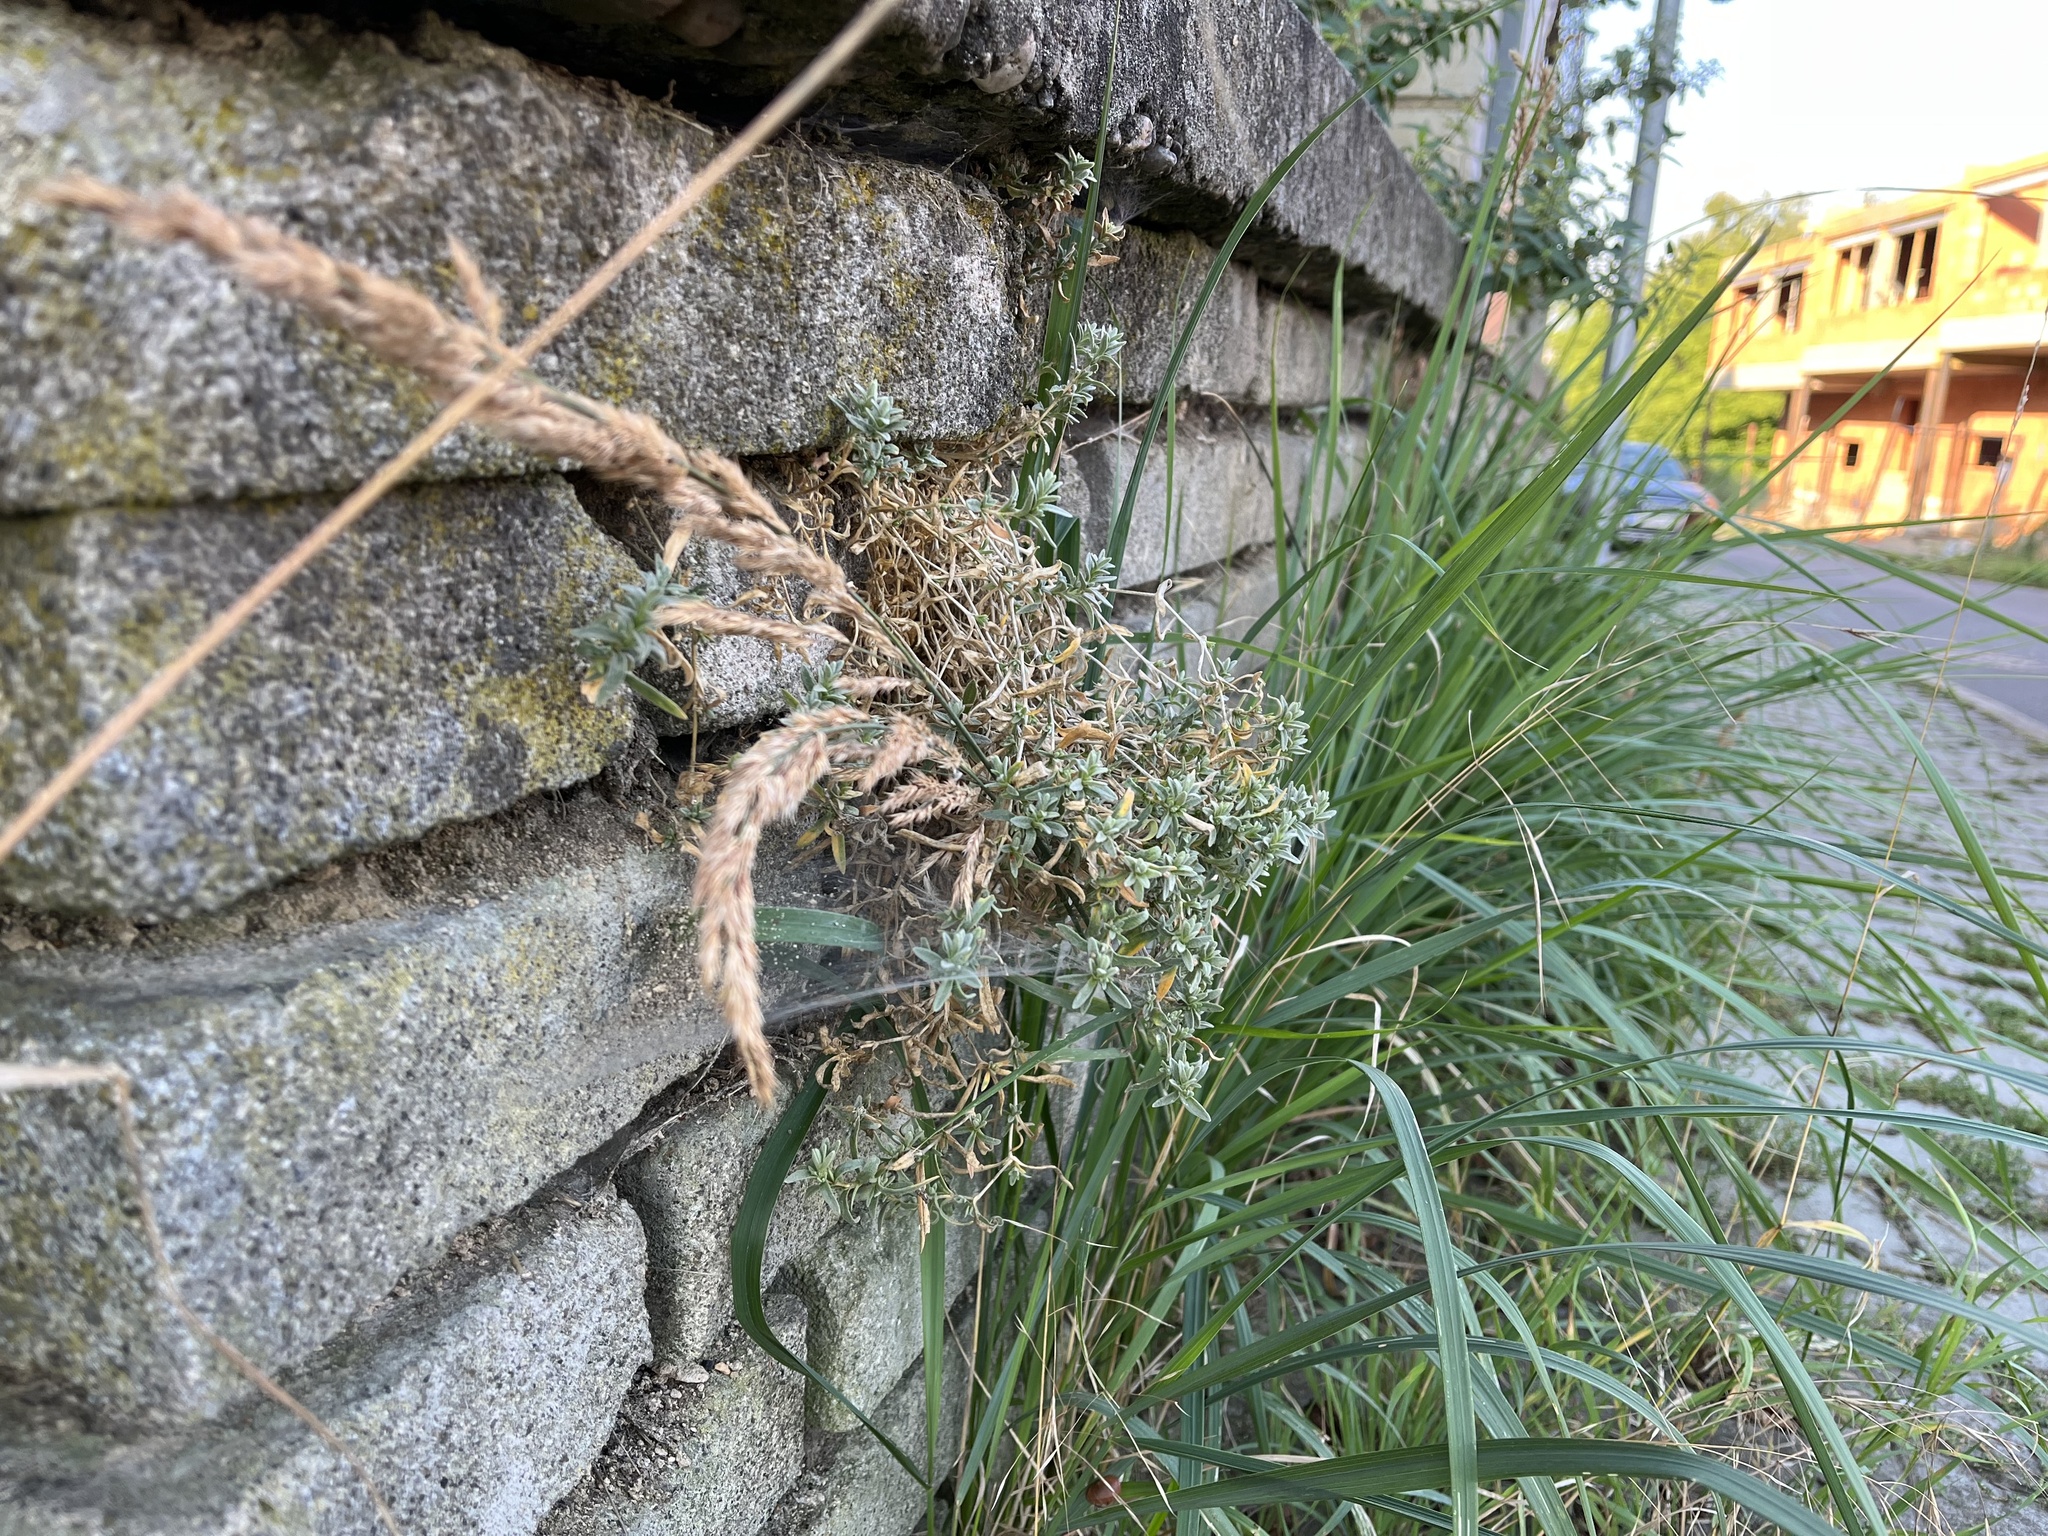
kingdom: Plantae
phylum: Tracheophyta
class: Magnoliopsida
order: Caryophyllales
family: Caryophyllaceae
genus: Cerastium
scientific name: Cerastium tomentosum
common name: Snow-in-summer
